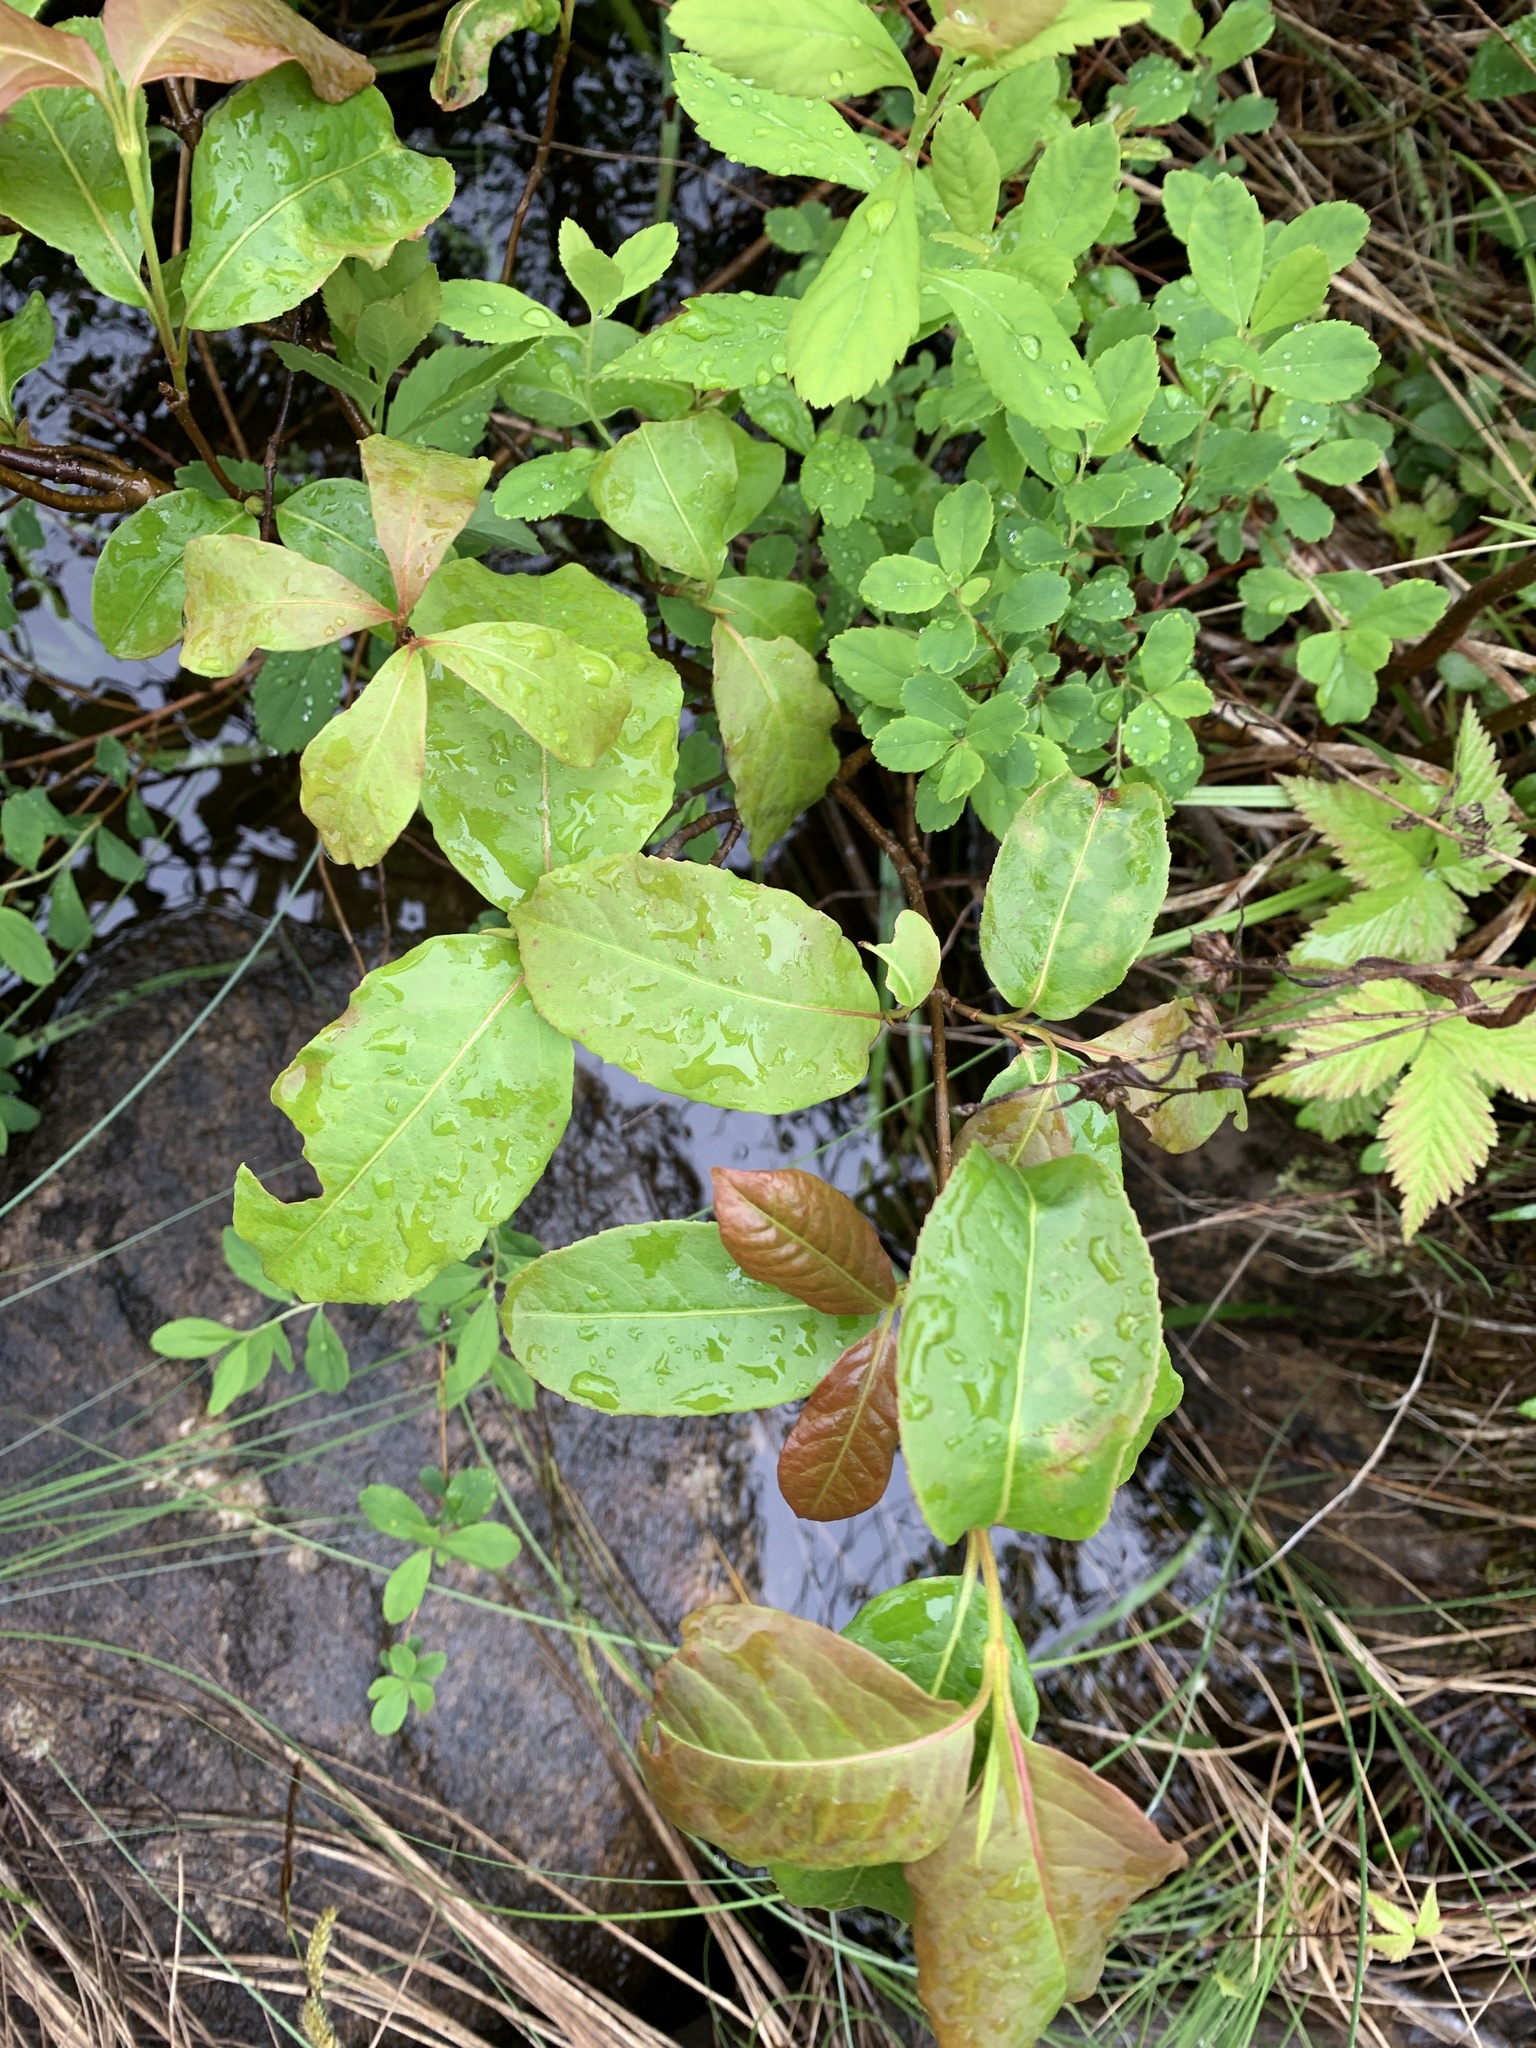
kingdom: Plantae
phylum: Tracheophyta
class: Magnoliopsida
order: Dipsacales
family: Viburnaceae
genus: Viburnum
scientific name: Viburnum cassinoides
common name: Swamp haw
